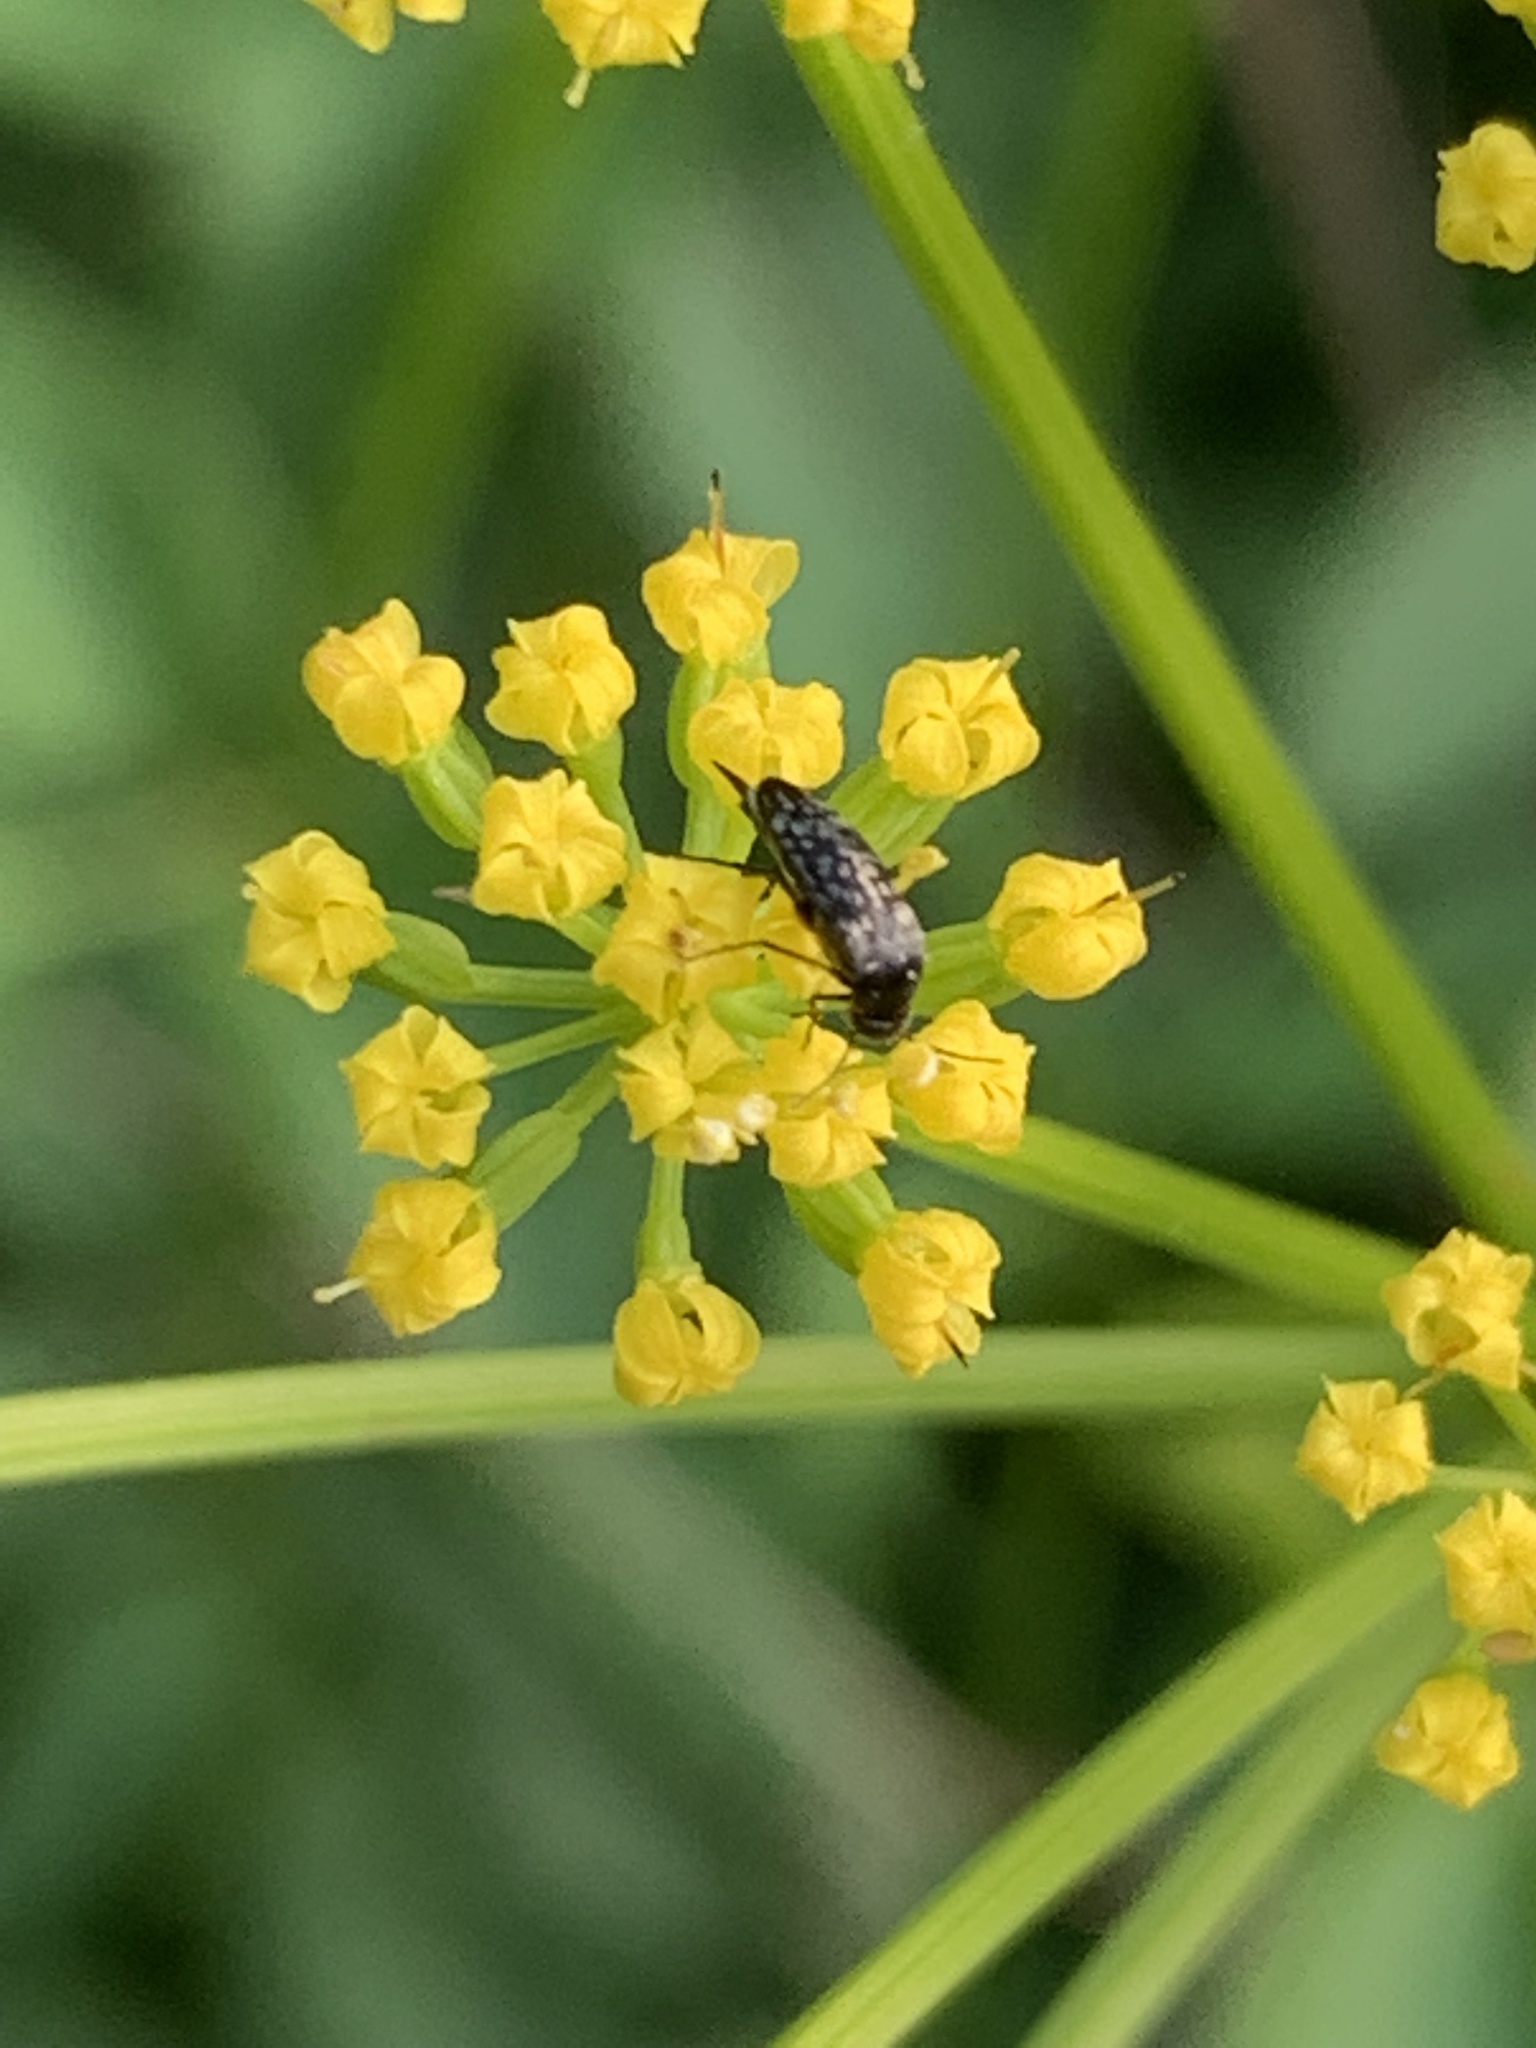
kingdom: Animalia
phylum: Arthropoda
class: Insecta
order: Coleoptera
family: Mordellidae
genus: Mordellina
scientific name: Mordellina pustulata
